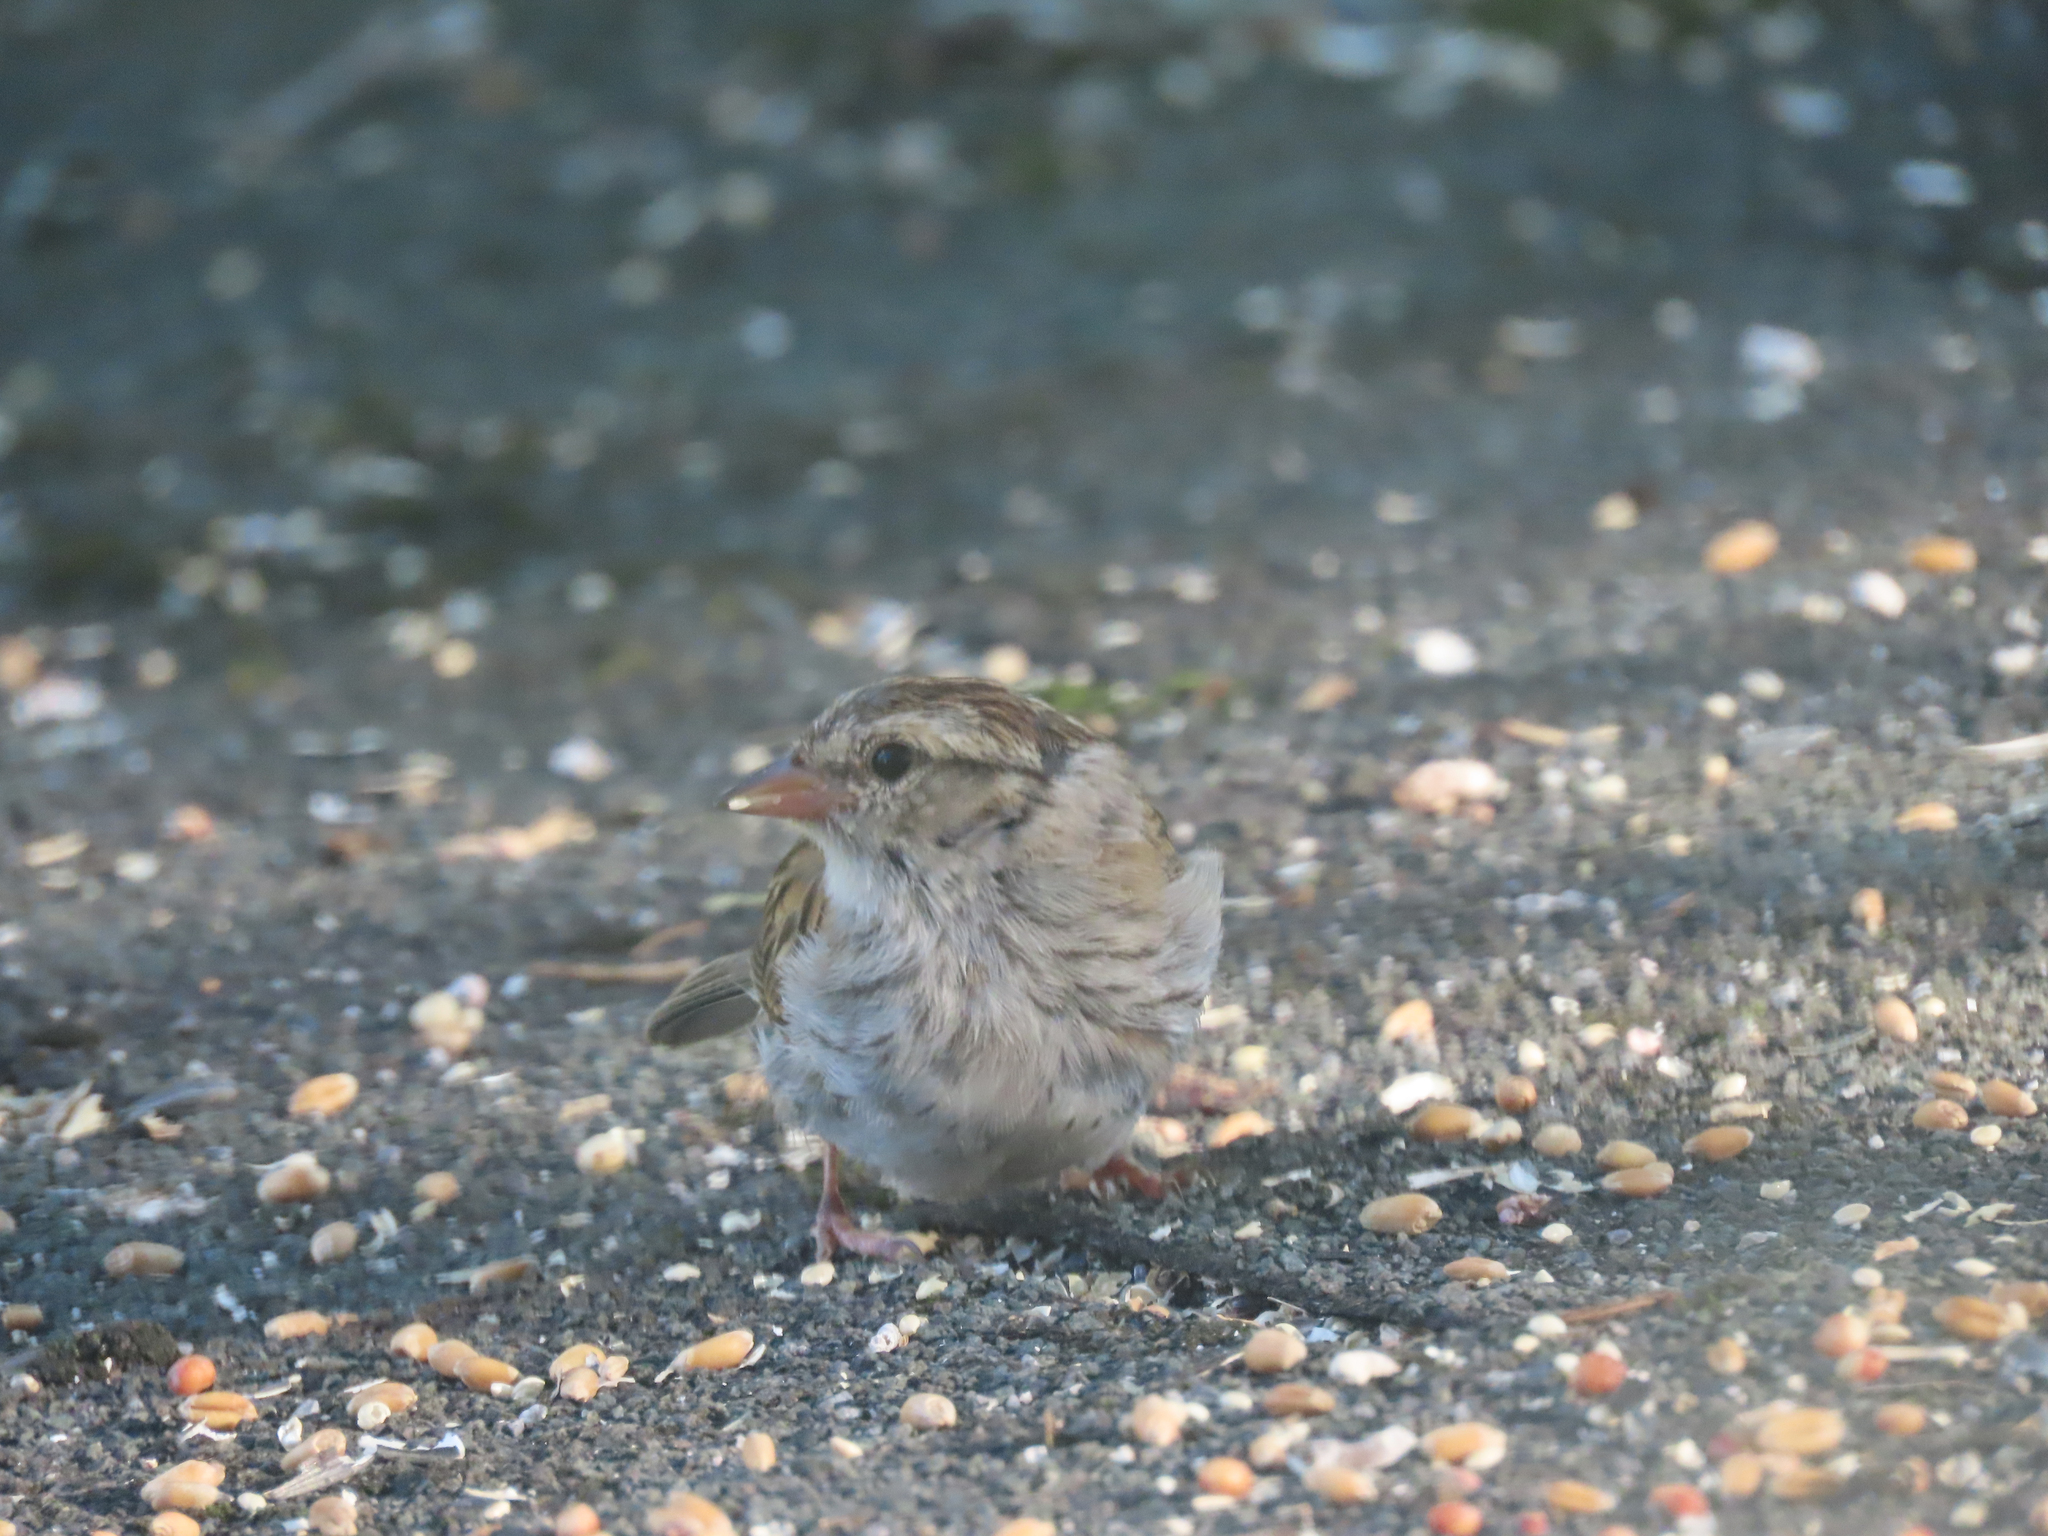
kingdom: Animalia
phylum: Chordata
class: Aves
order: Passeriformes
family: Passerellidae
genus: Spizella
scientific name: Spizella passerina
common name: Chipping sparrow
